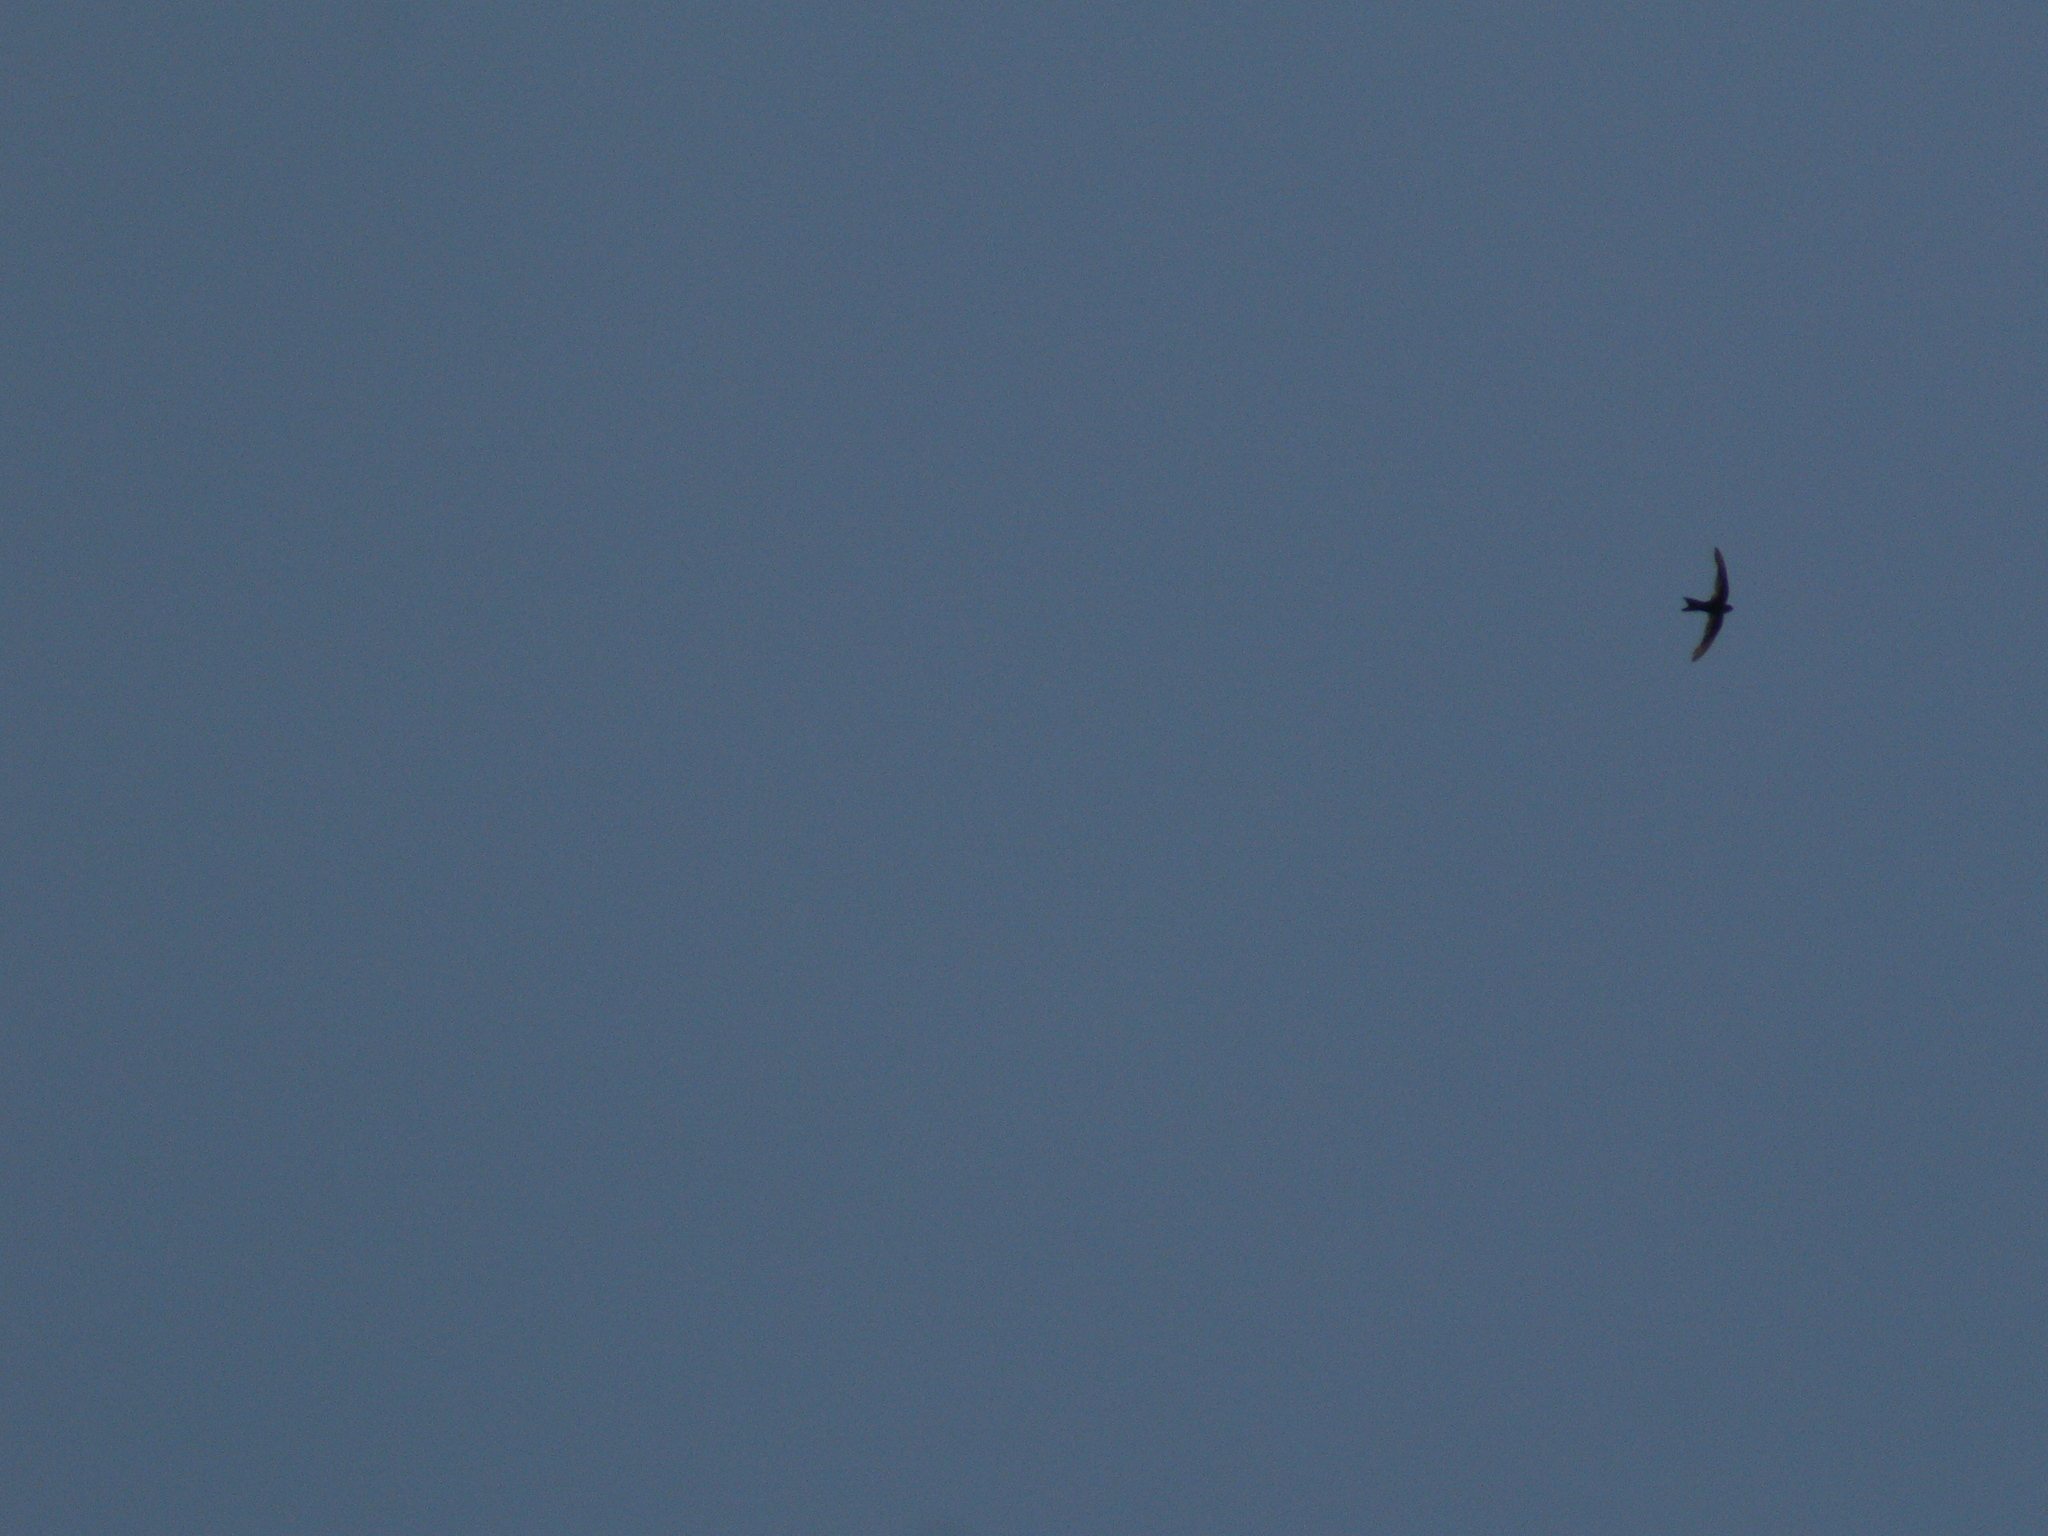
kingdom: Animalia
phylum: Chordata
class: Aves
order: Apodiformes
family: Apodidae
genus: Apus
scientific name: Apus pacificus
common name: Pacific swift
